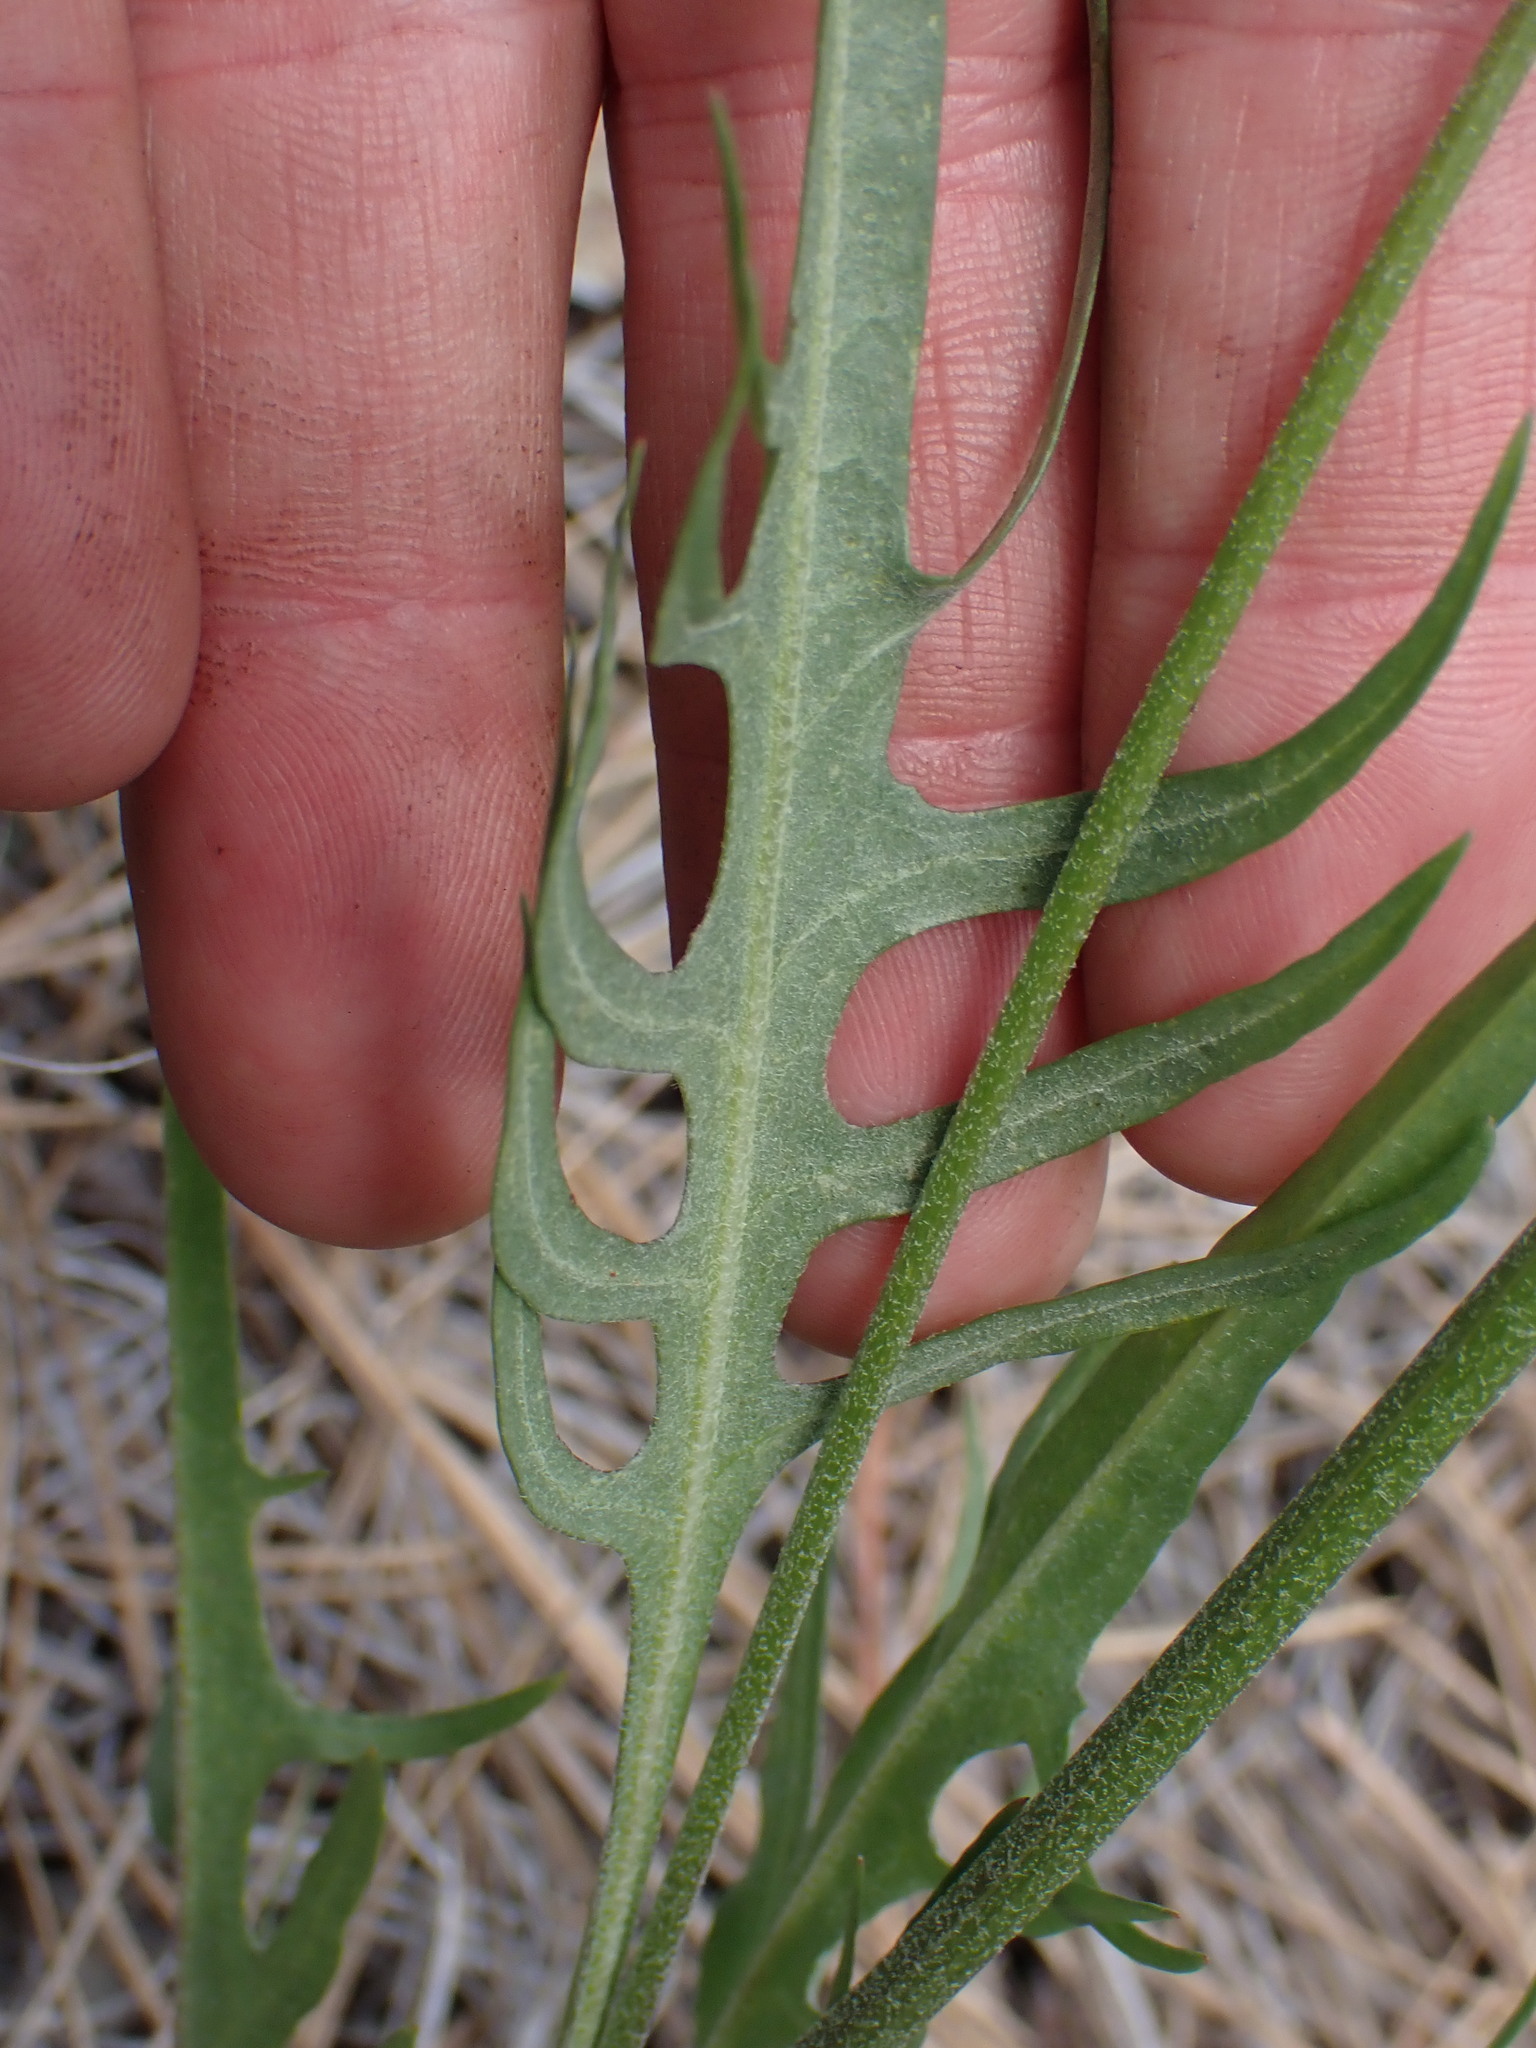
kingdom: Plantae
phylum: Tracheophyta
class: Magnoliopsida
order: Asterales
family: Asteraceae
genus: Crepis
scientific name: Crepis atribarba
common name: Dark hawk's-beard
